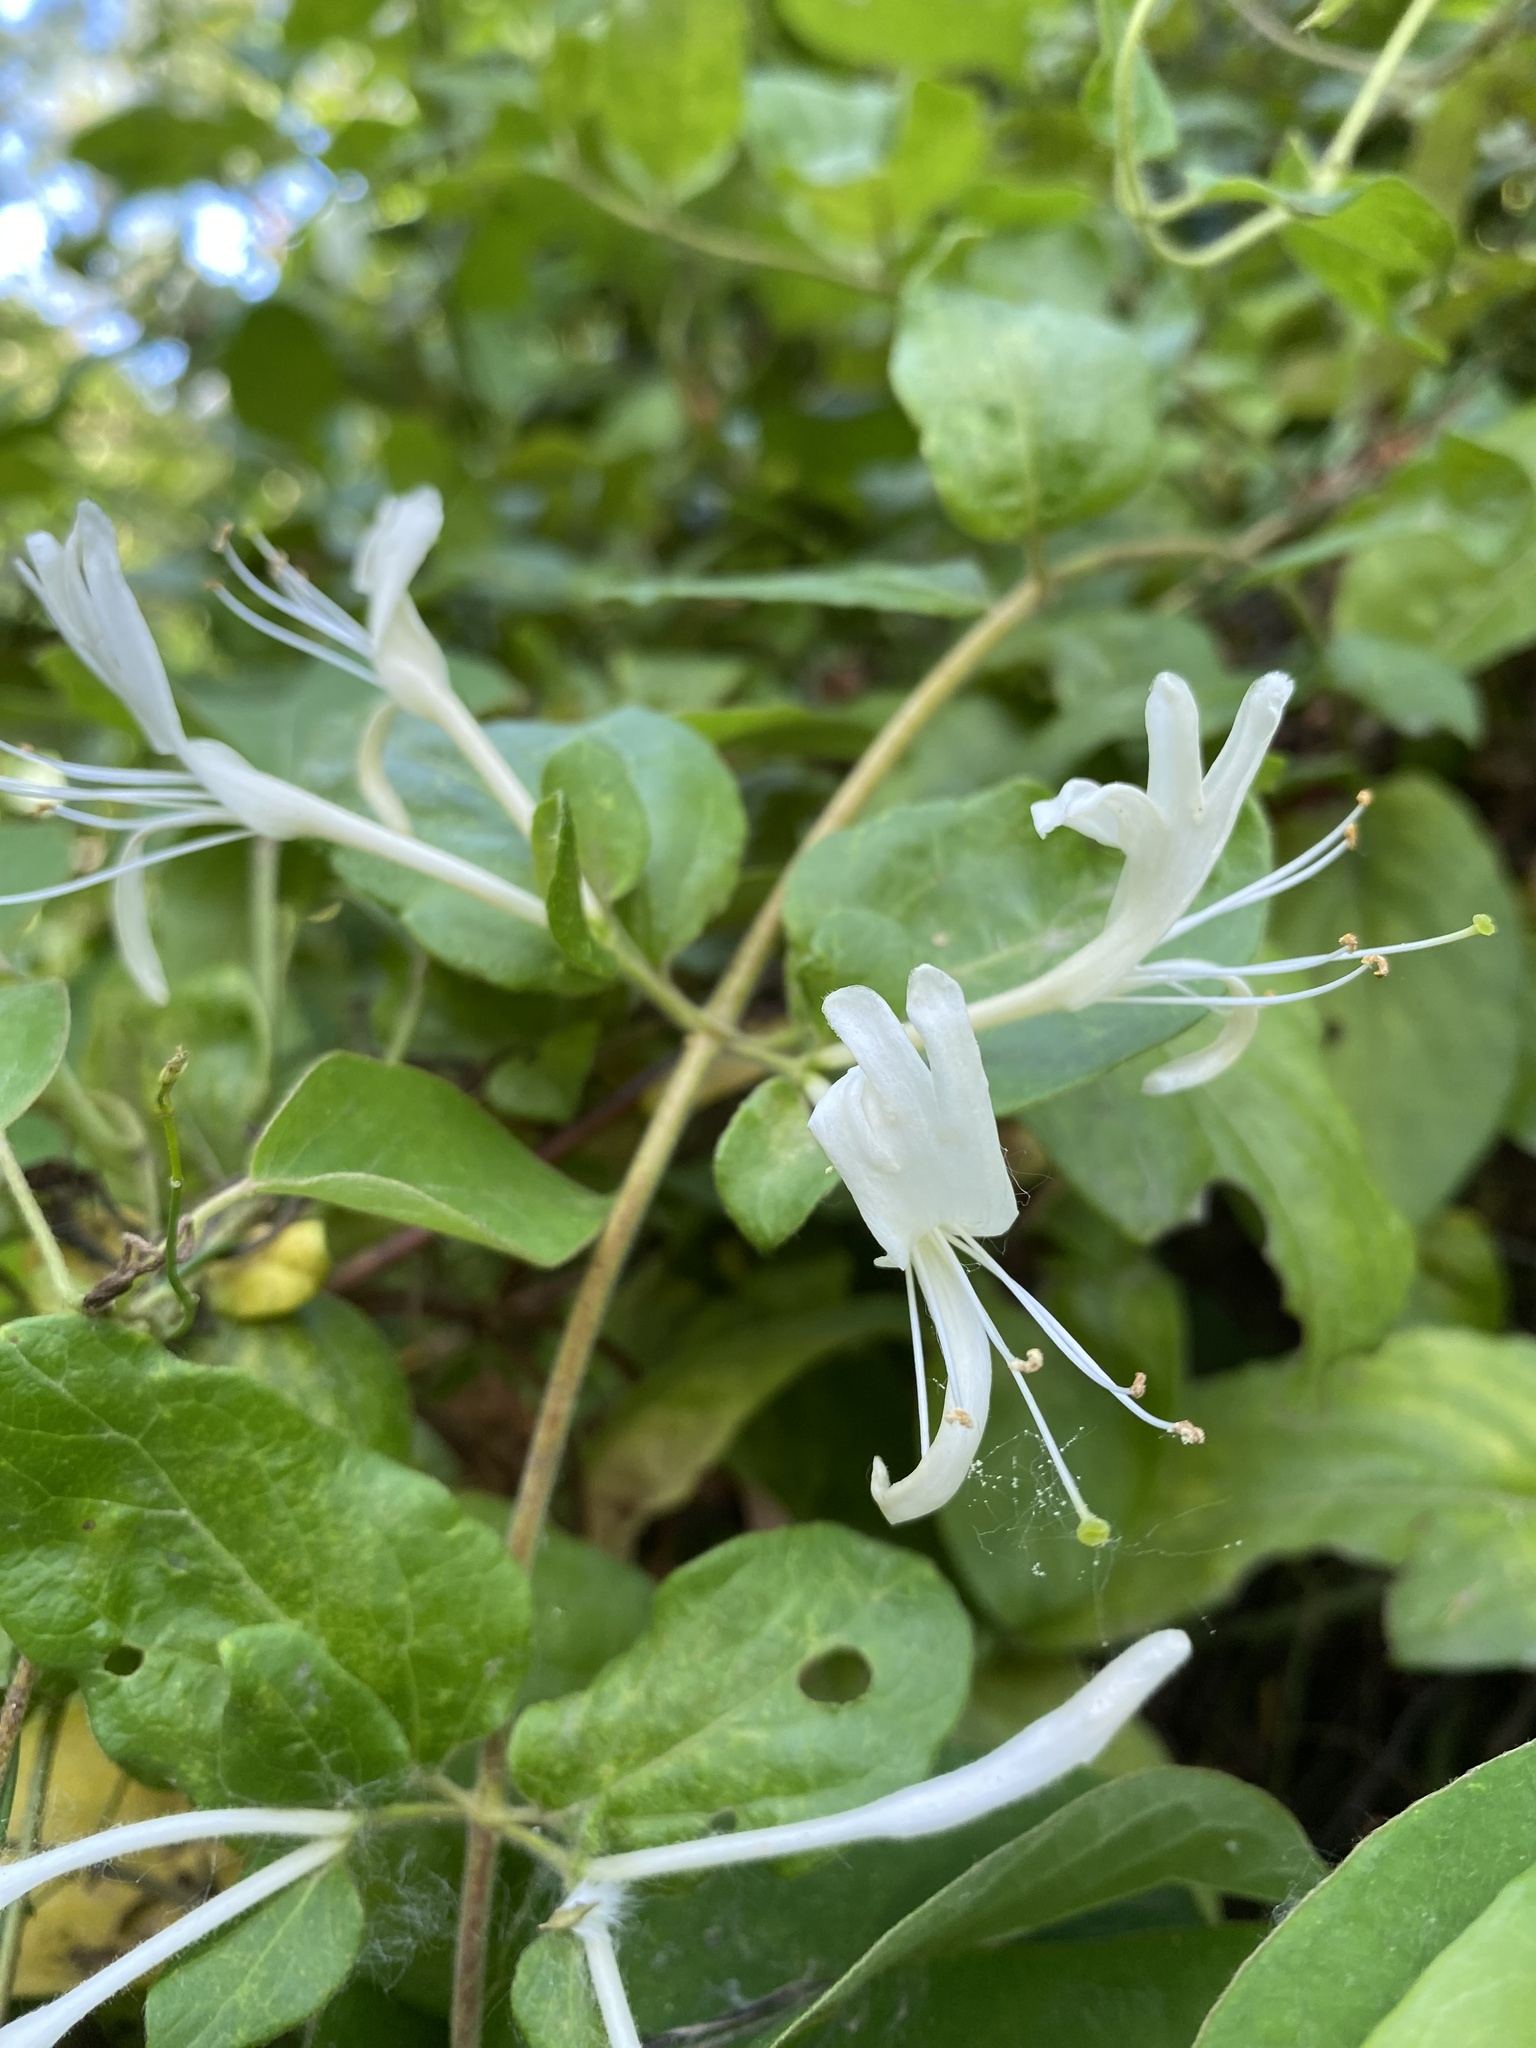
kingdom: Plantae
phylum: Tracheophyta
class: Magnoliopsida
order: Dipsacales
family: Caprifoliaceae
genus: Lonicera
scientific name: Lonicera japonica
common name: Japanese honeysuckle
